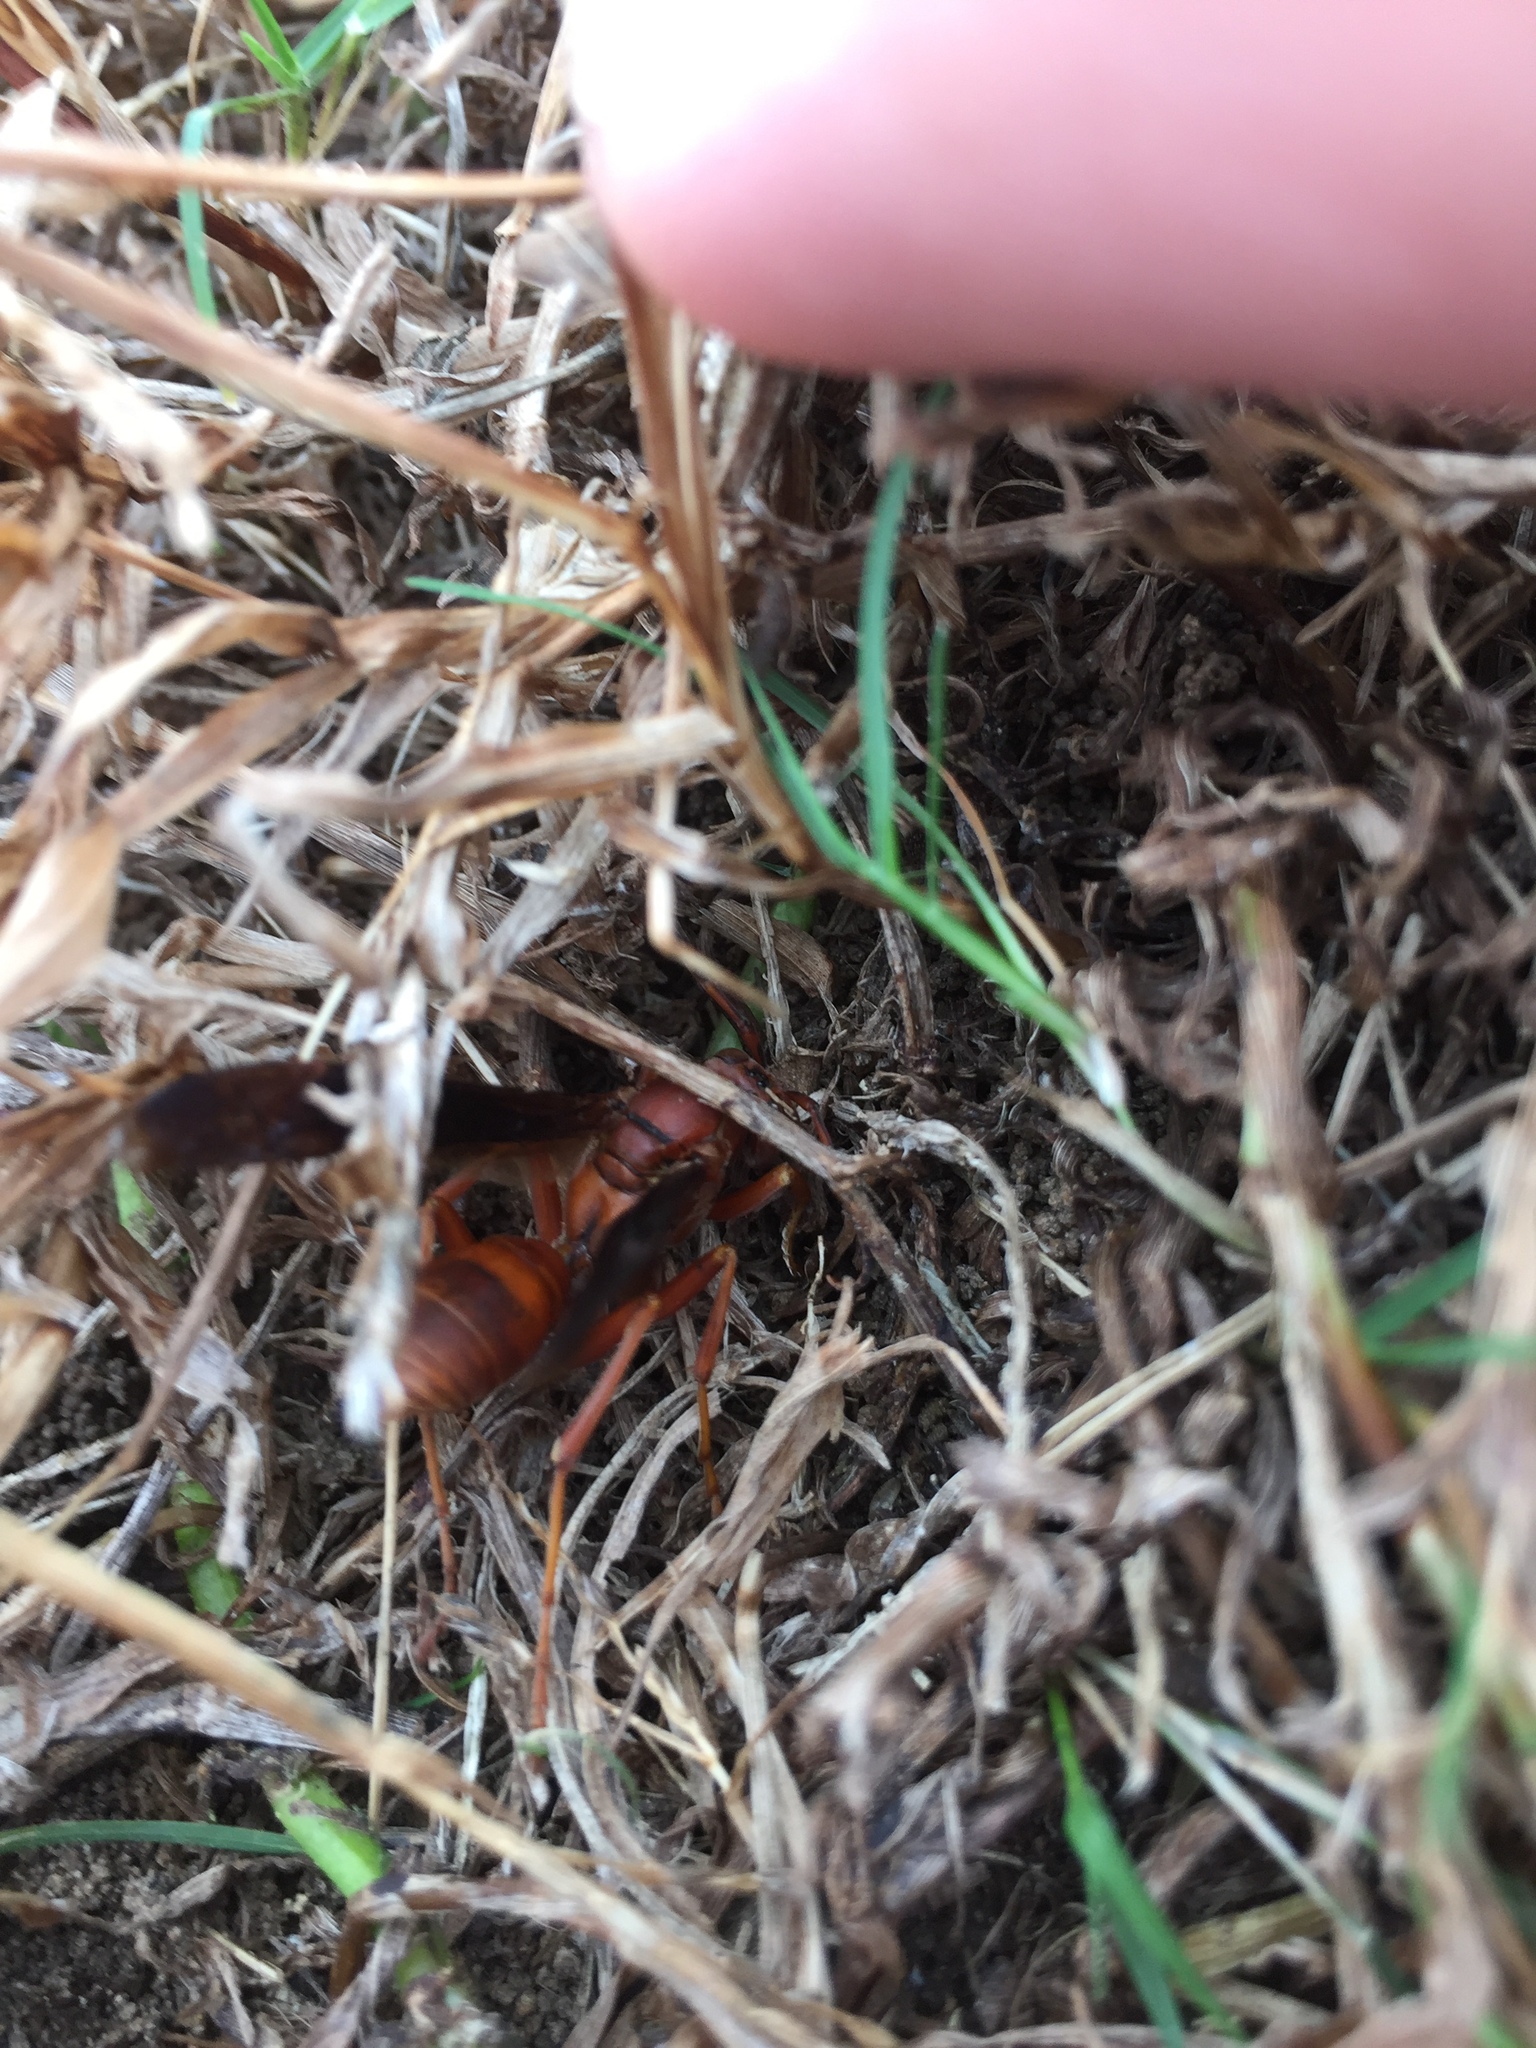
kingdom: Animalia
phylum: Arthropoda
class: Insecta
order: Hymenoptera
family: Eumenidae
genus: Polistes
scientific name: Polistes carolina
